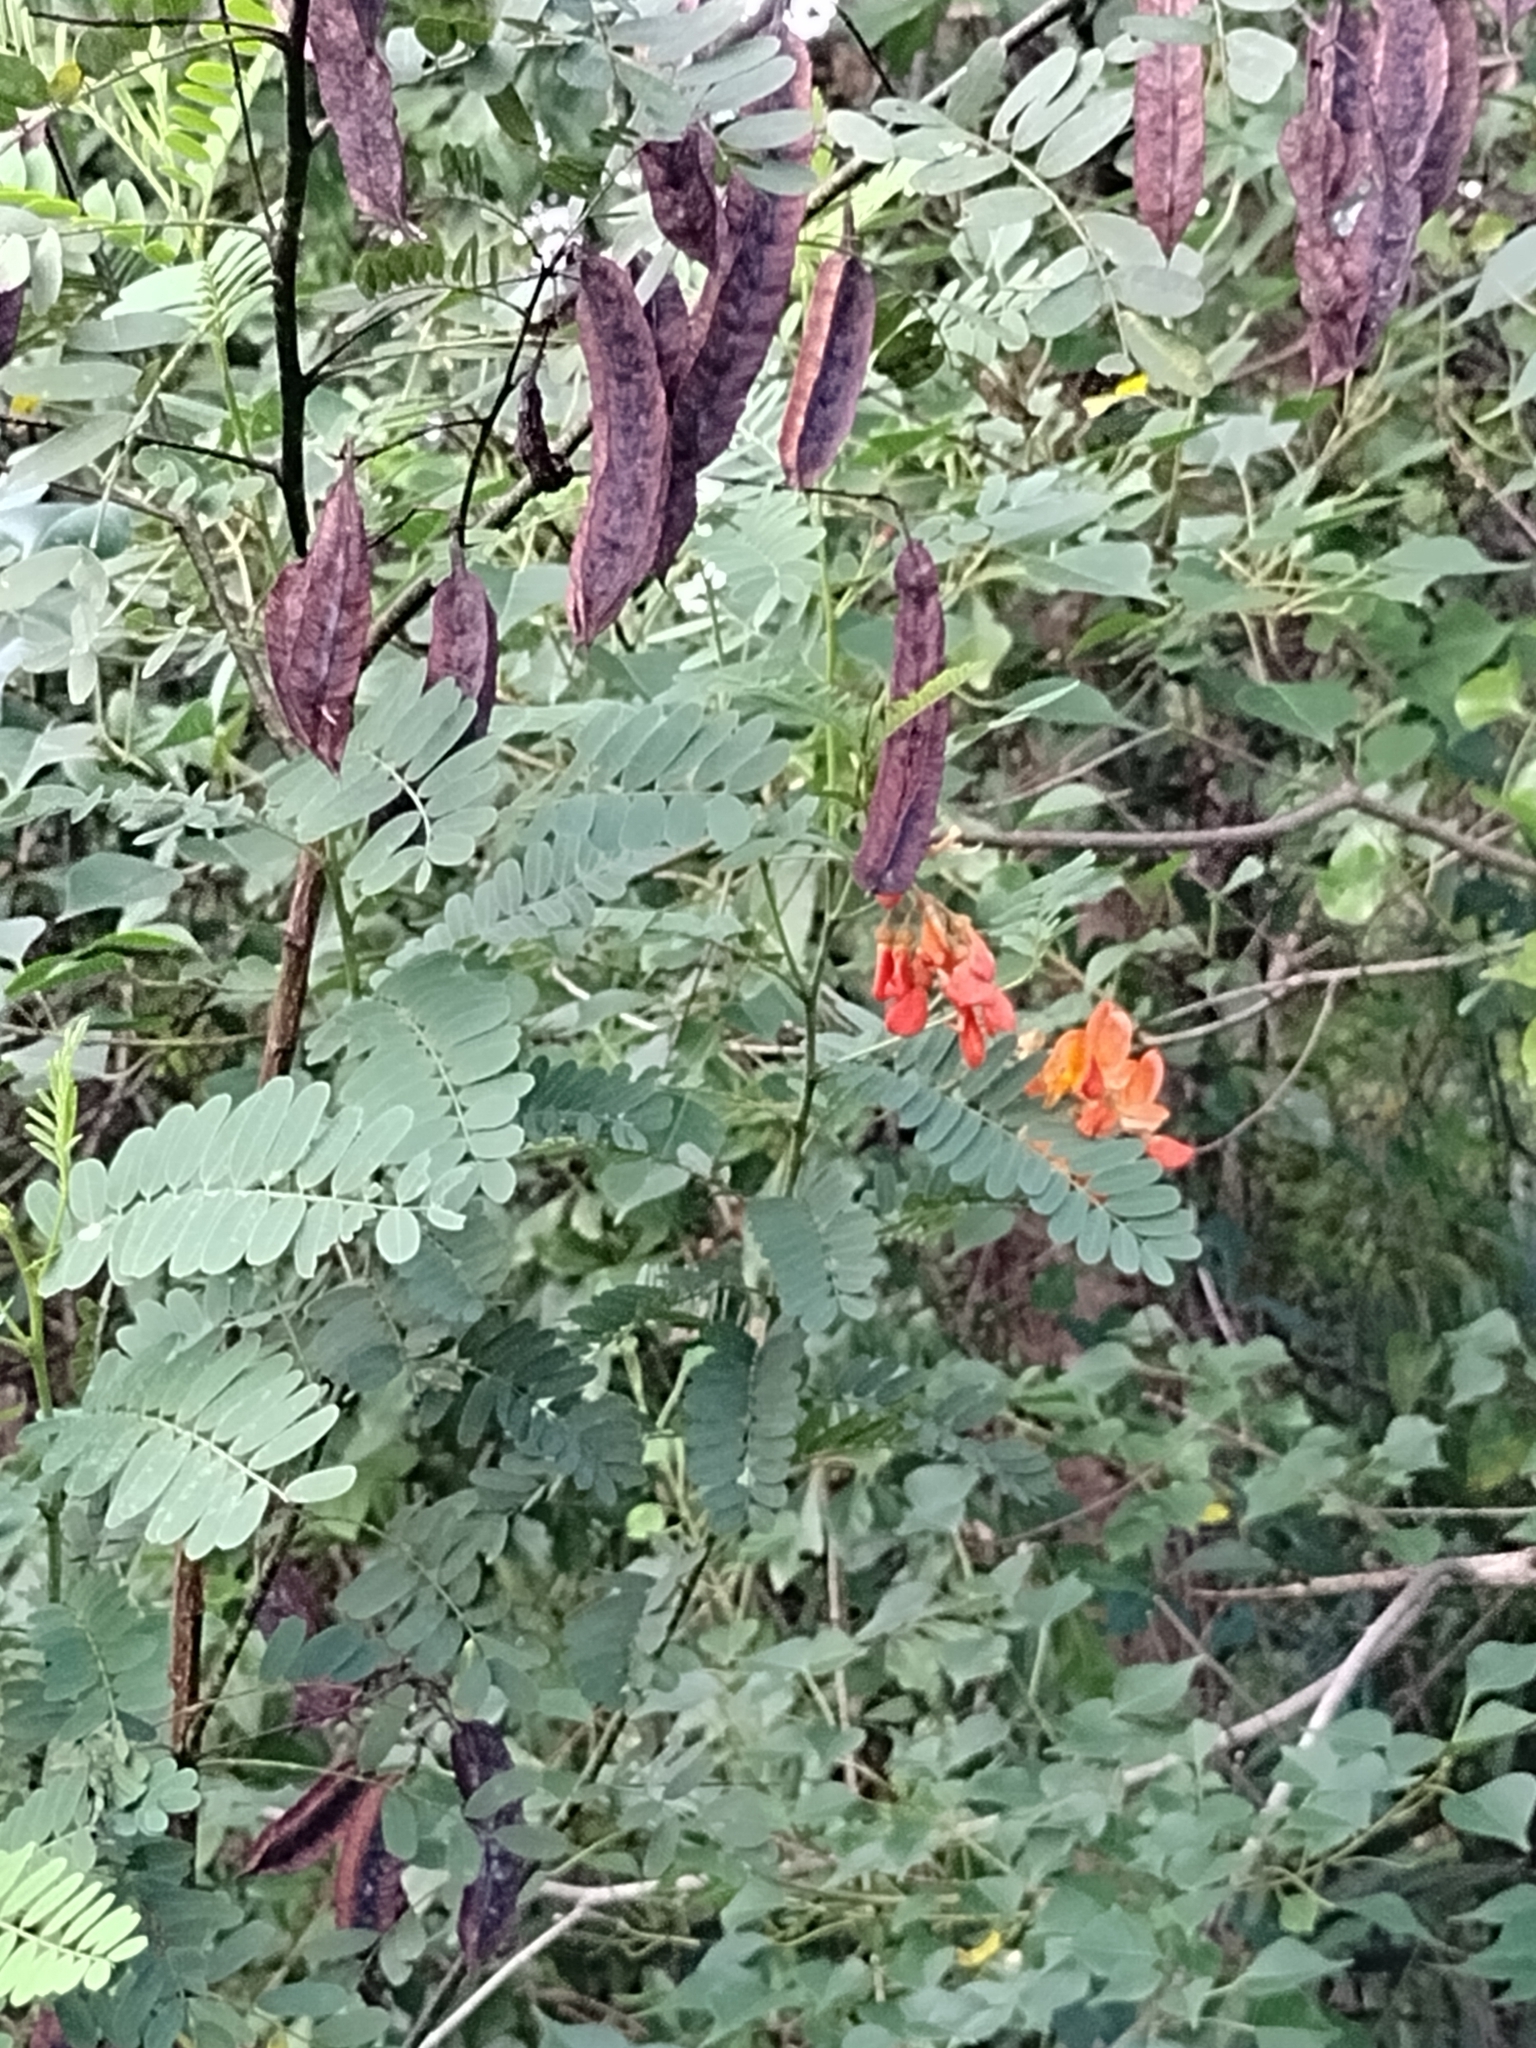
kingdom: Plantae
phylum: Tracheophyta
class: Magnoliopsida
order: Fabales
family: Fabaceae
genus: Sesbania
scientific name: Sesbania punicea
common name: Rattlebox
